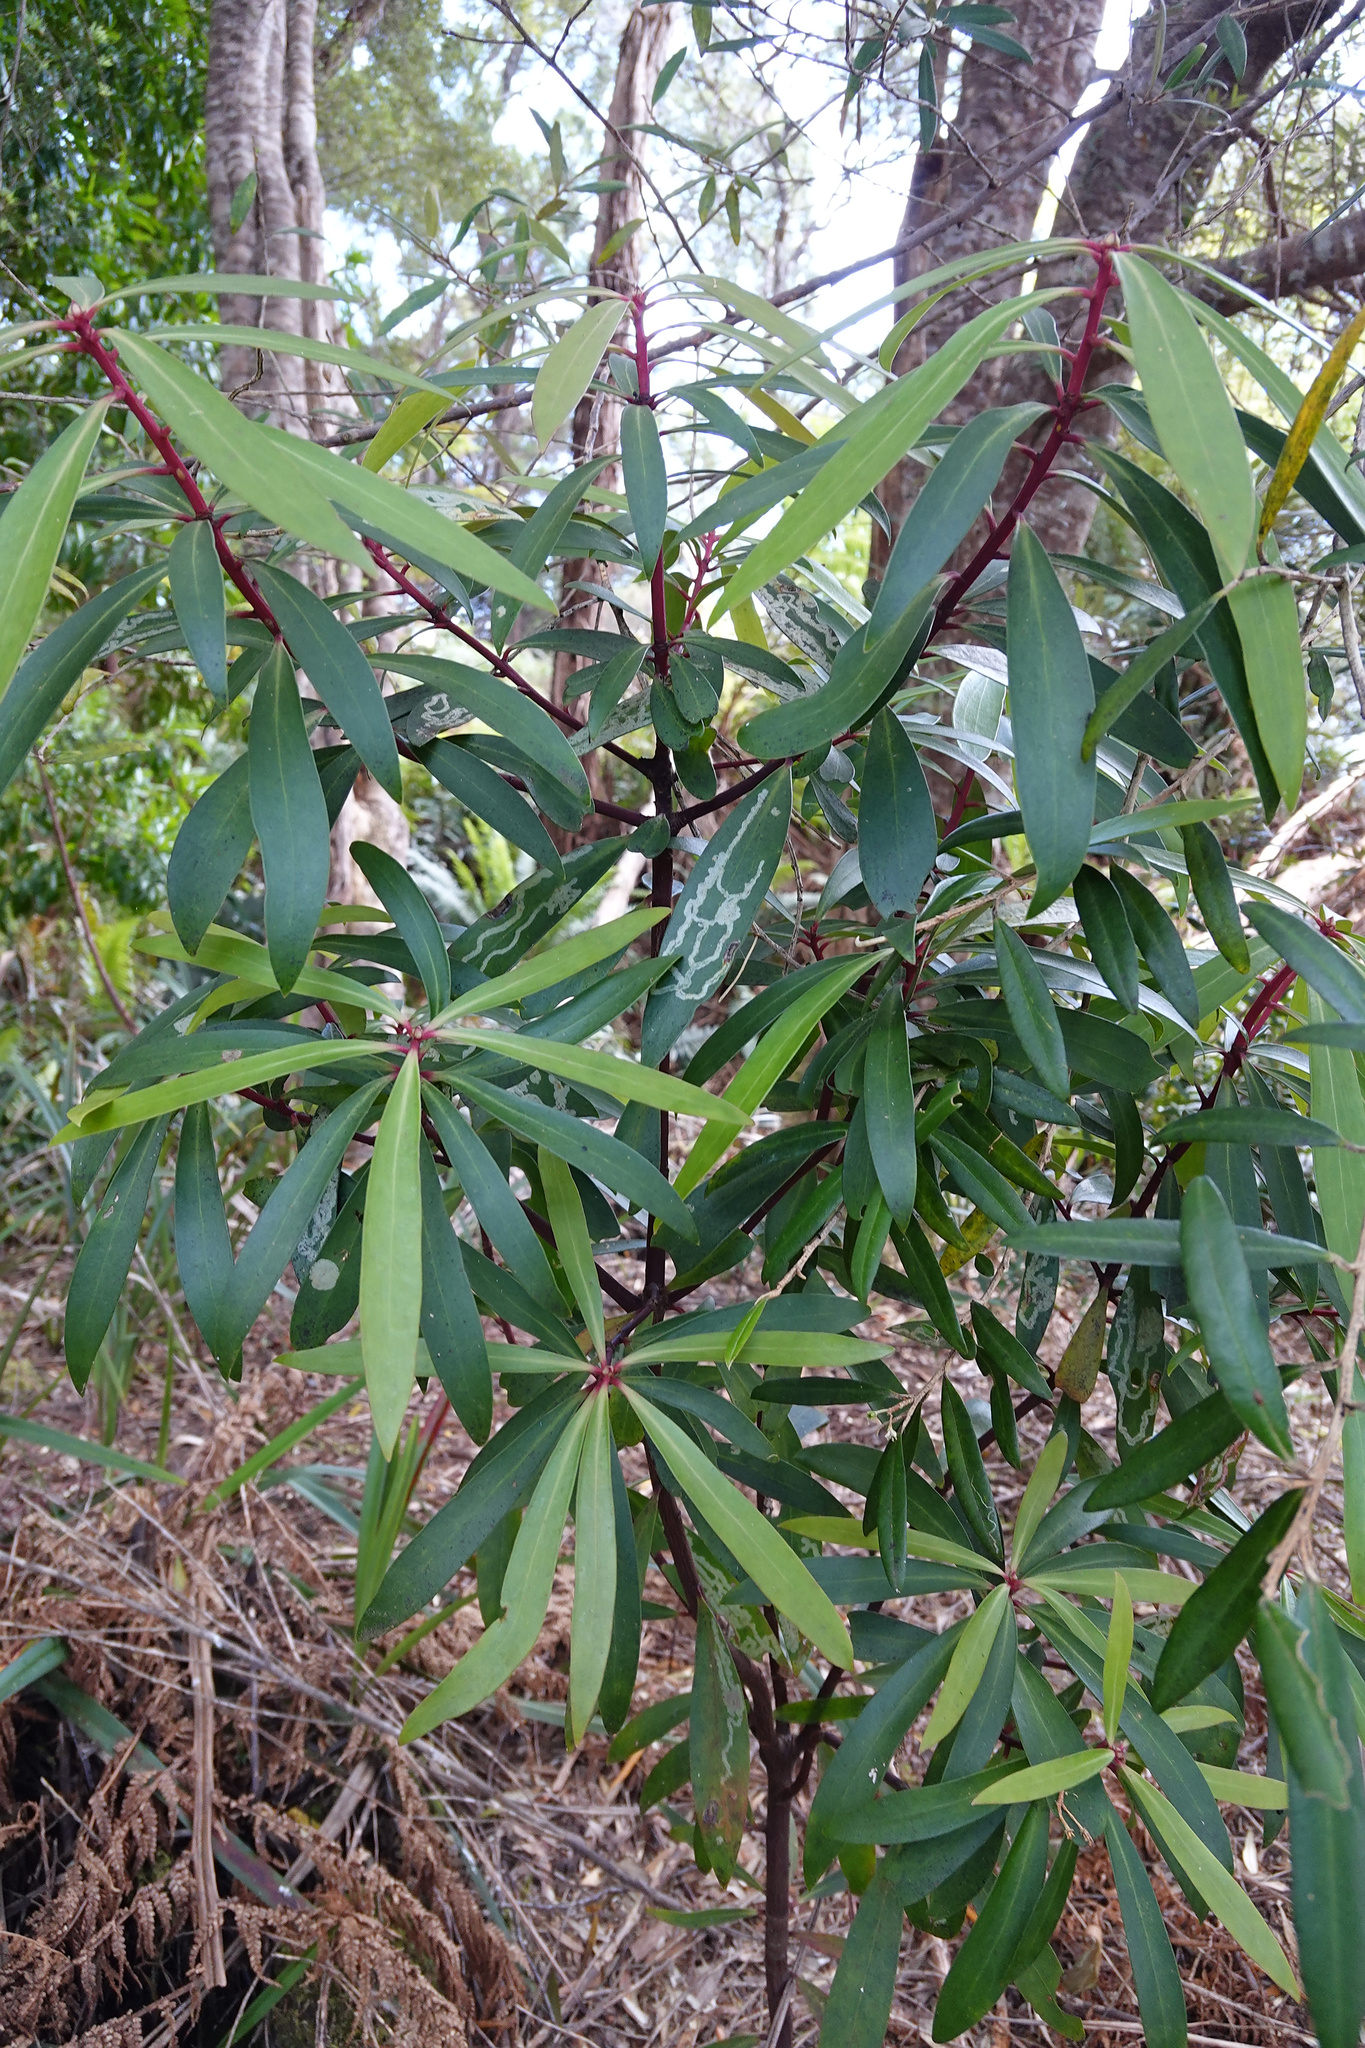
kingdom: Plantae
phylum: Tracheophyta
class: Magnoliopsida
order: Canellales
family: Winteraceae
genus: Drimys
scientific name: Drimys aromatica
